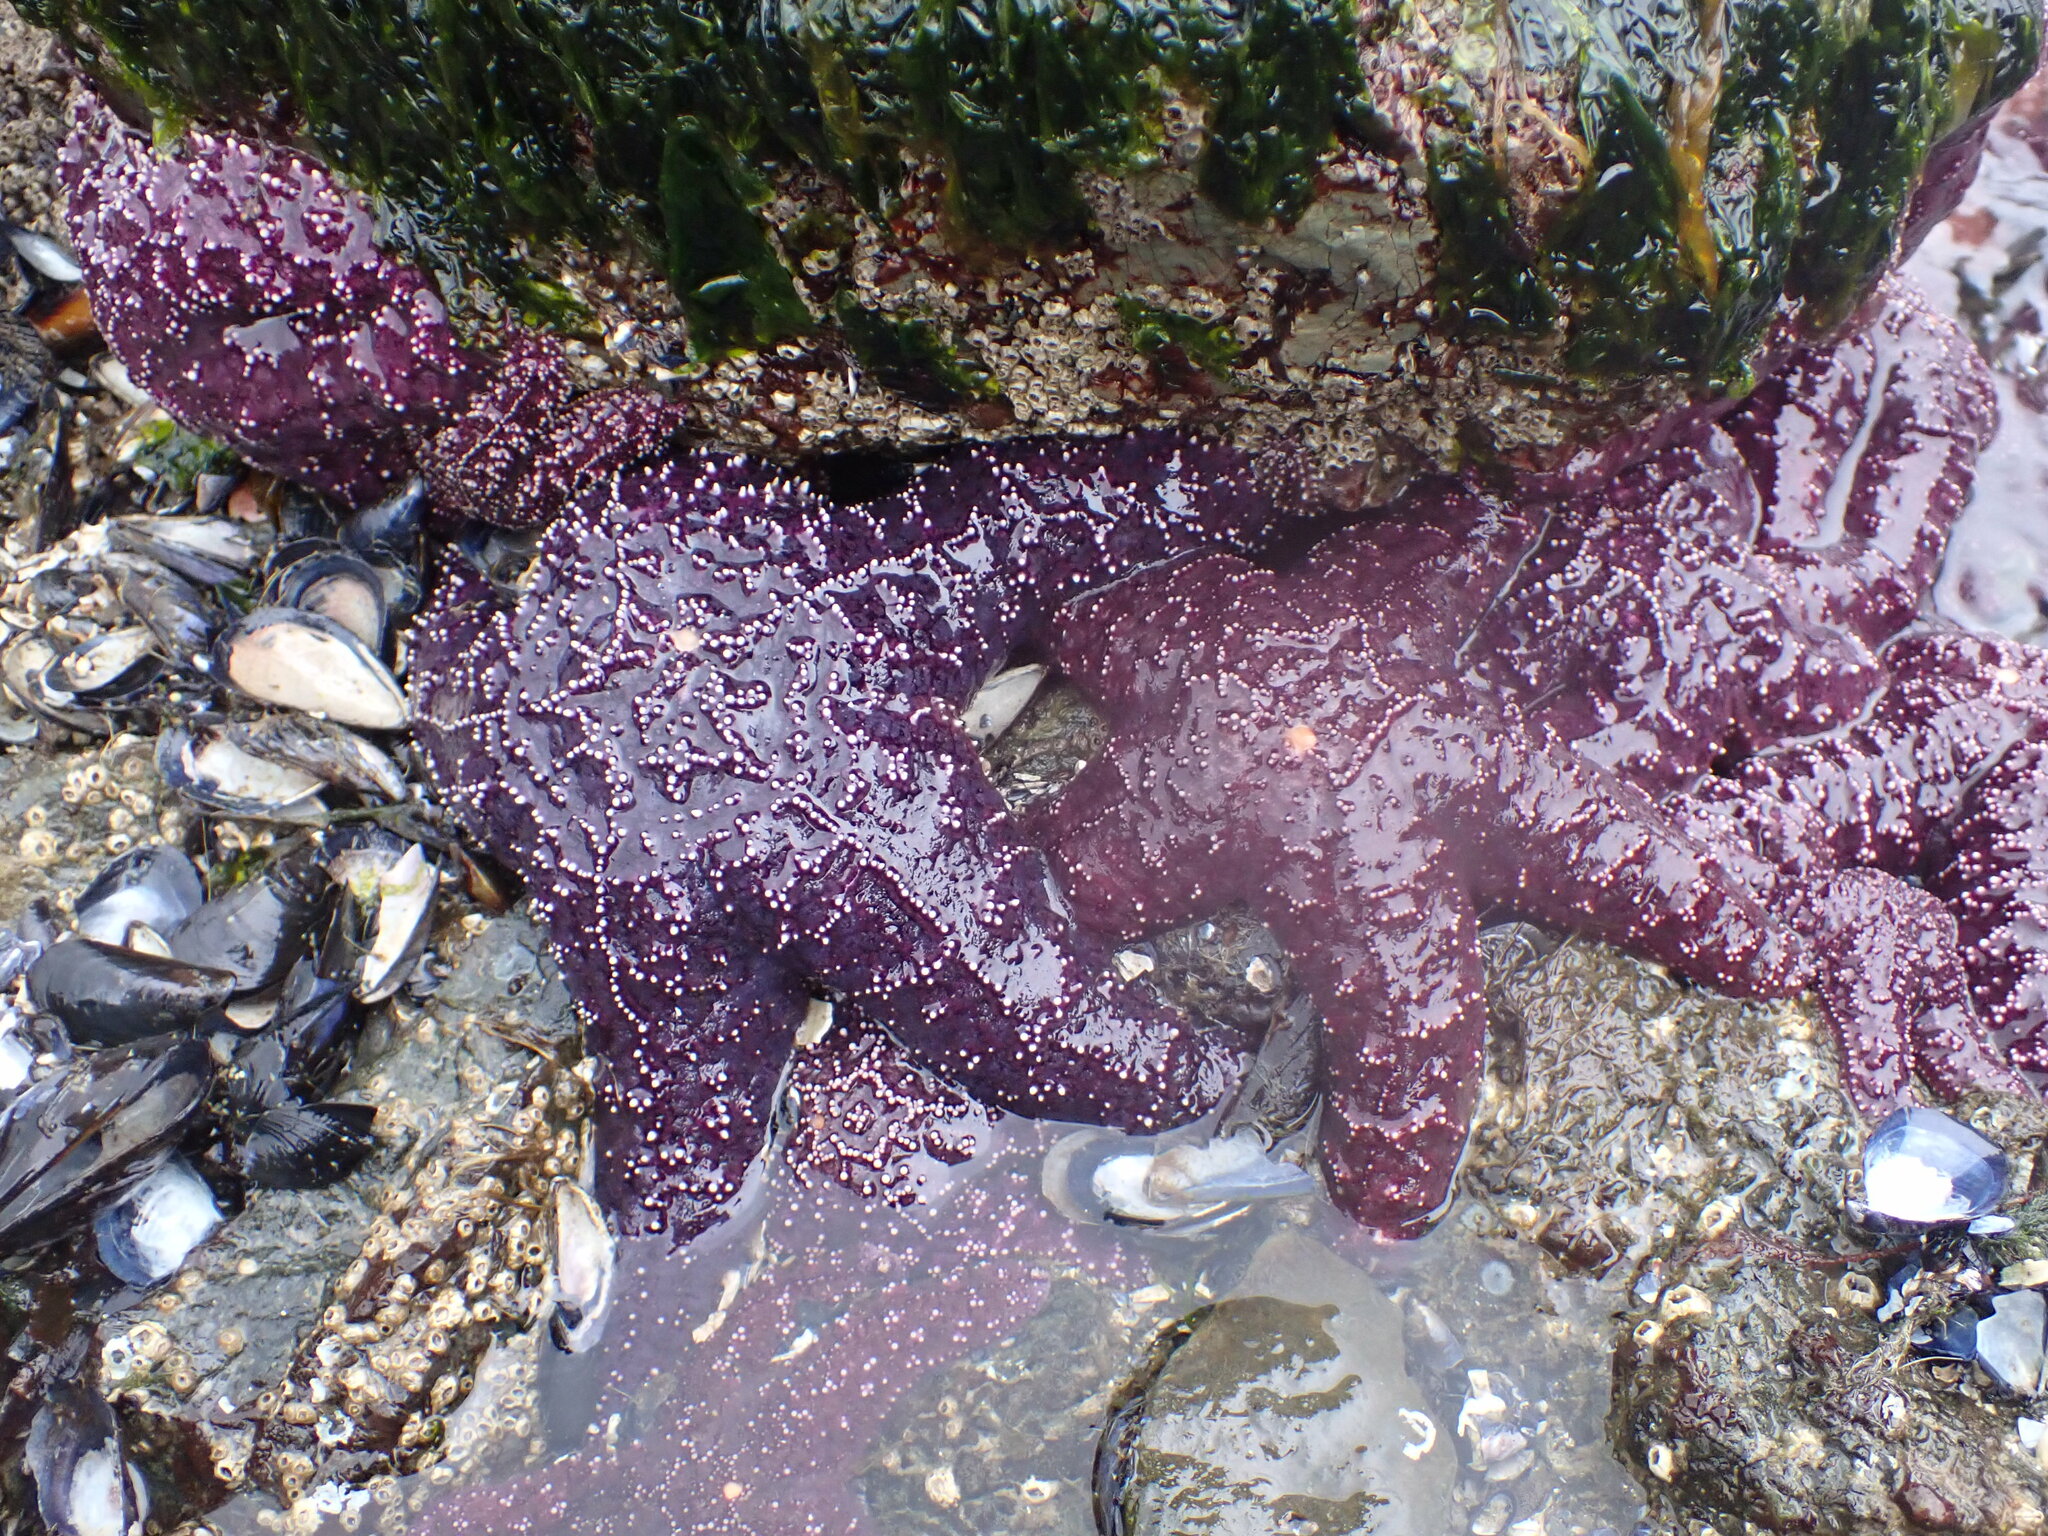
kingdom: Animalia
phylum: Echinodermata
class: Asteroidea
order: Forcipulatida
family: Asteriidae
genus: Pisaster
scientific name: Pisaster ochraceus
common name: Ochre stars
